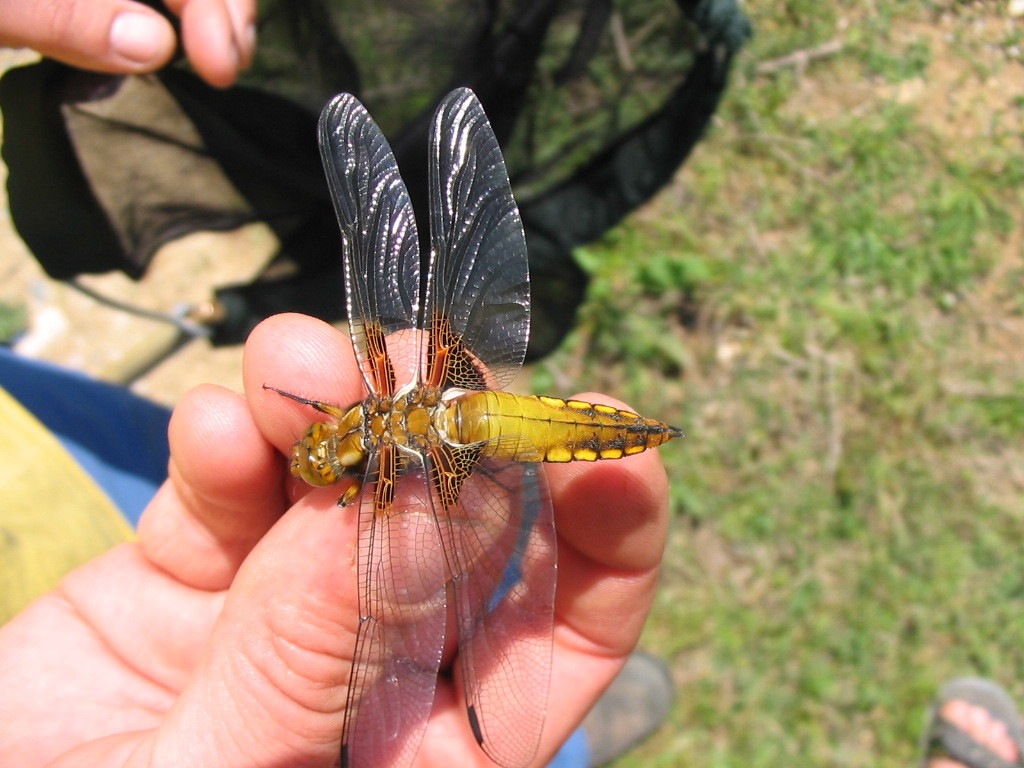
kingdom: Animalia
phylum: Arthropoda
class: Insecta
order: Odonata
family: Libellulidae
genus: Libellula
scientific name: Libellula depressa
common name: Broad-bodied chaser
